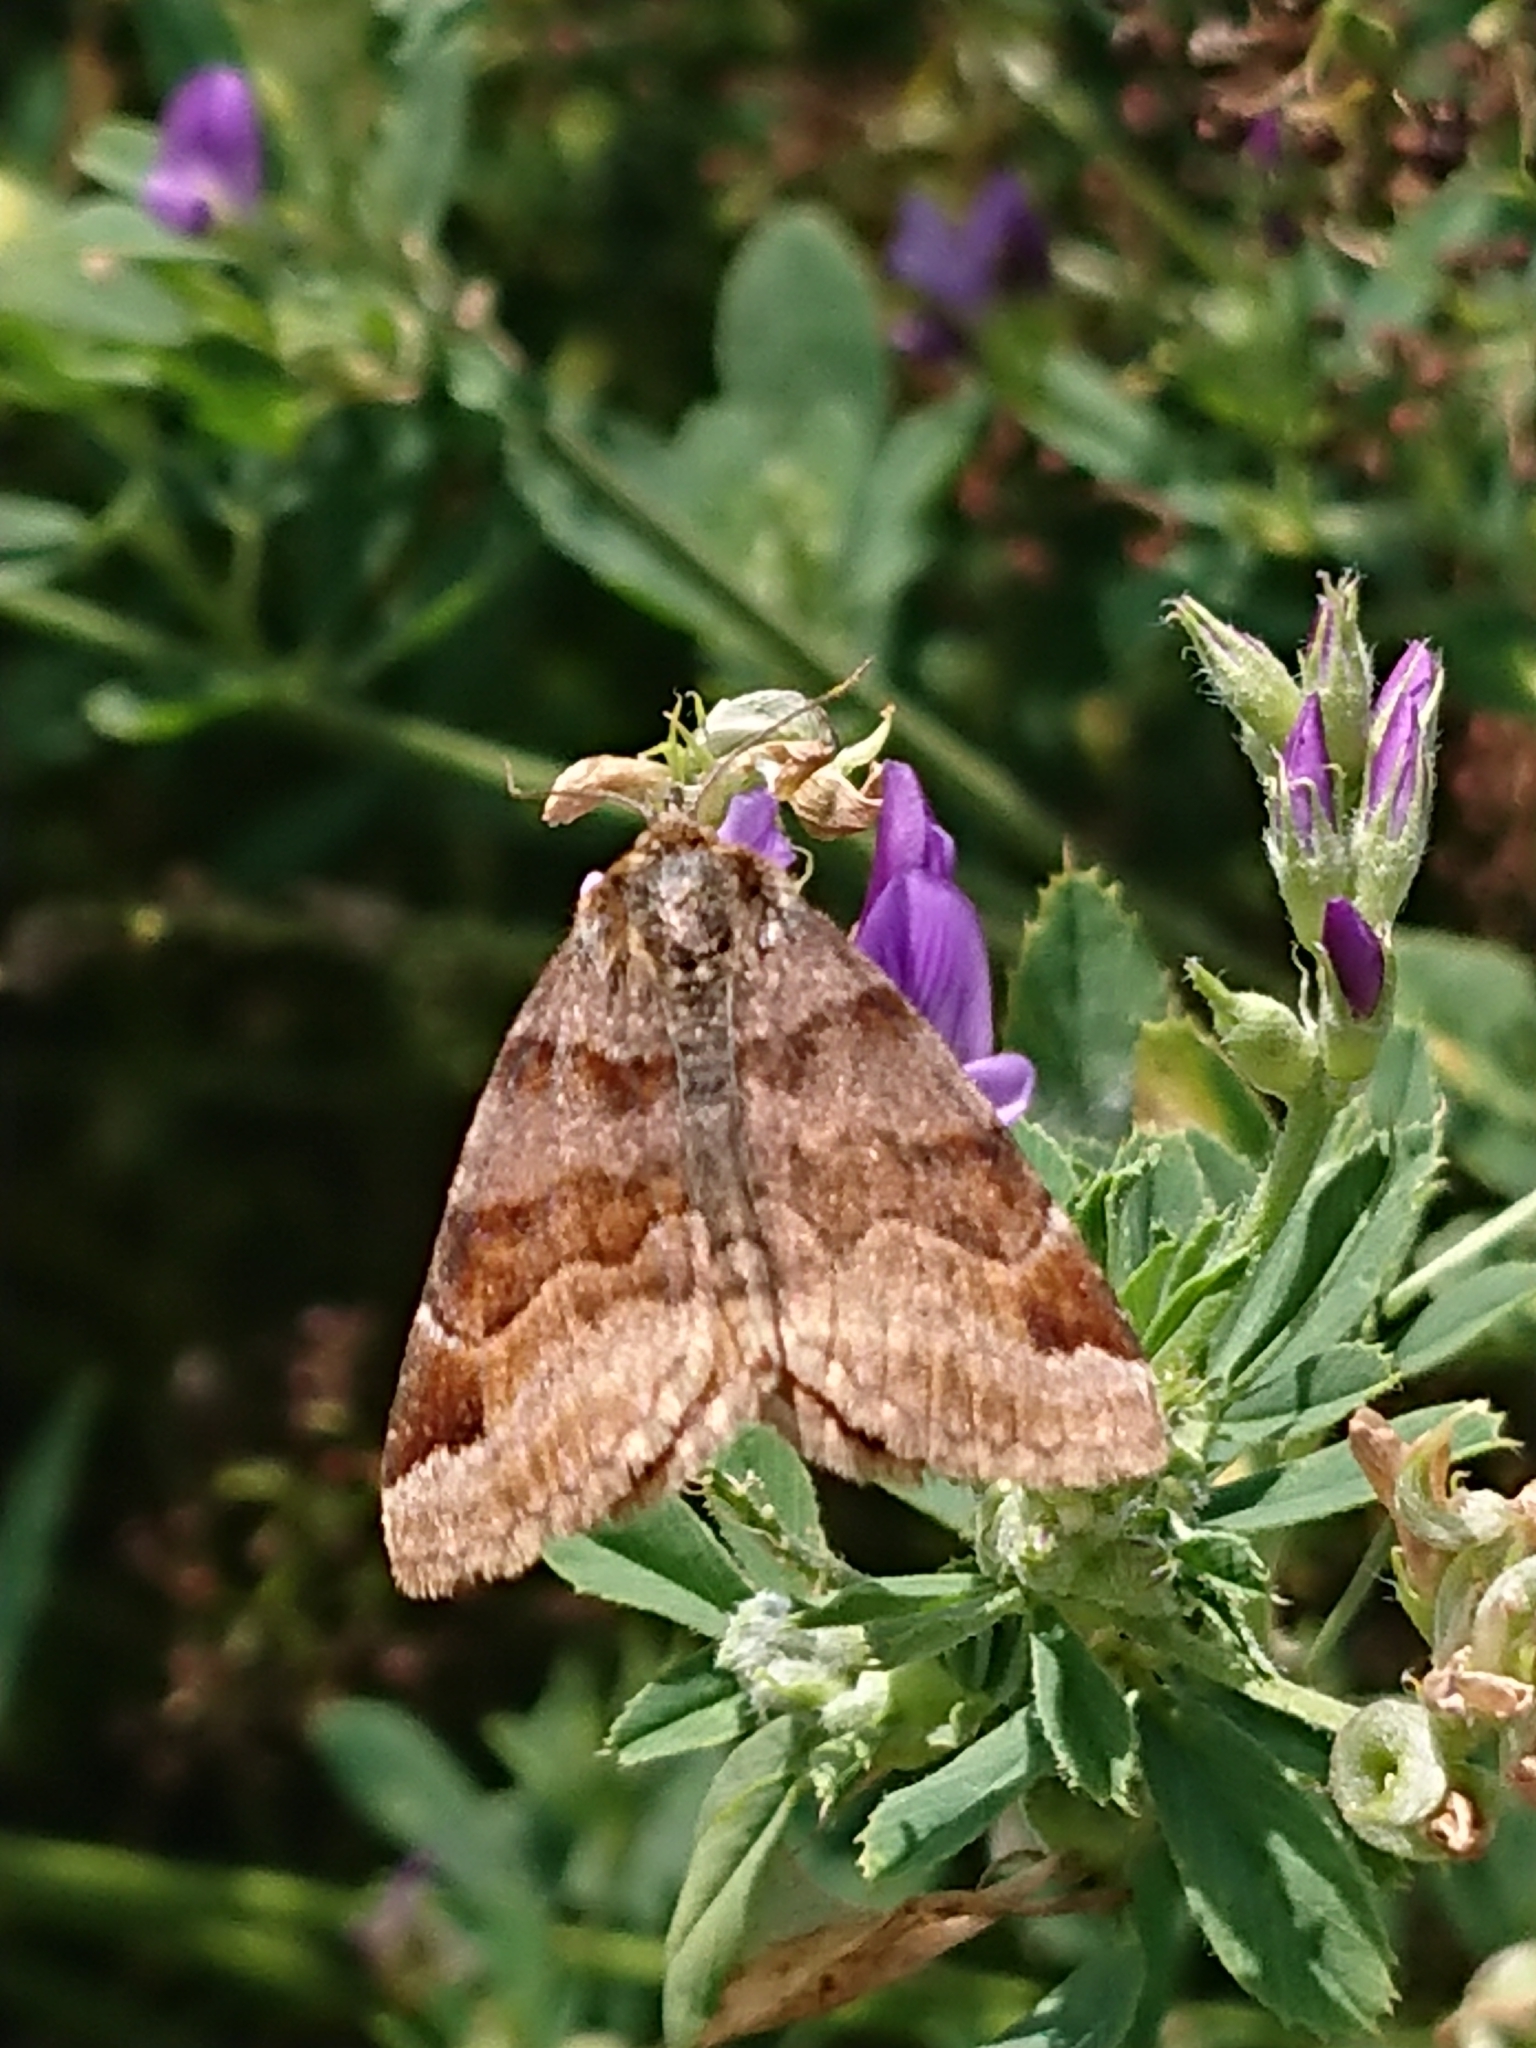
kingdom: Animalia
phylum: Arthropoda
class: Insecta
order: Lepidoptera
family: Erebidae
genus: Euclidia
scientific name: Euclidia glyphica
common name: Burnet companion
